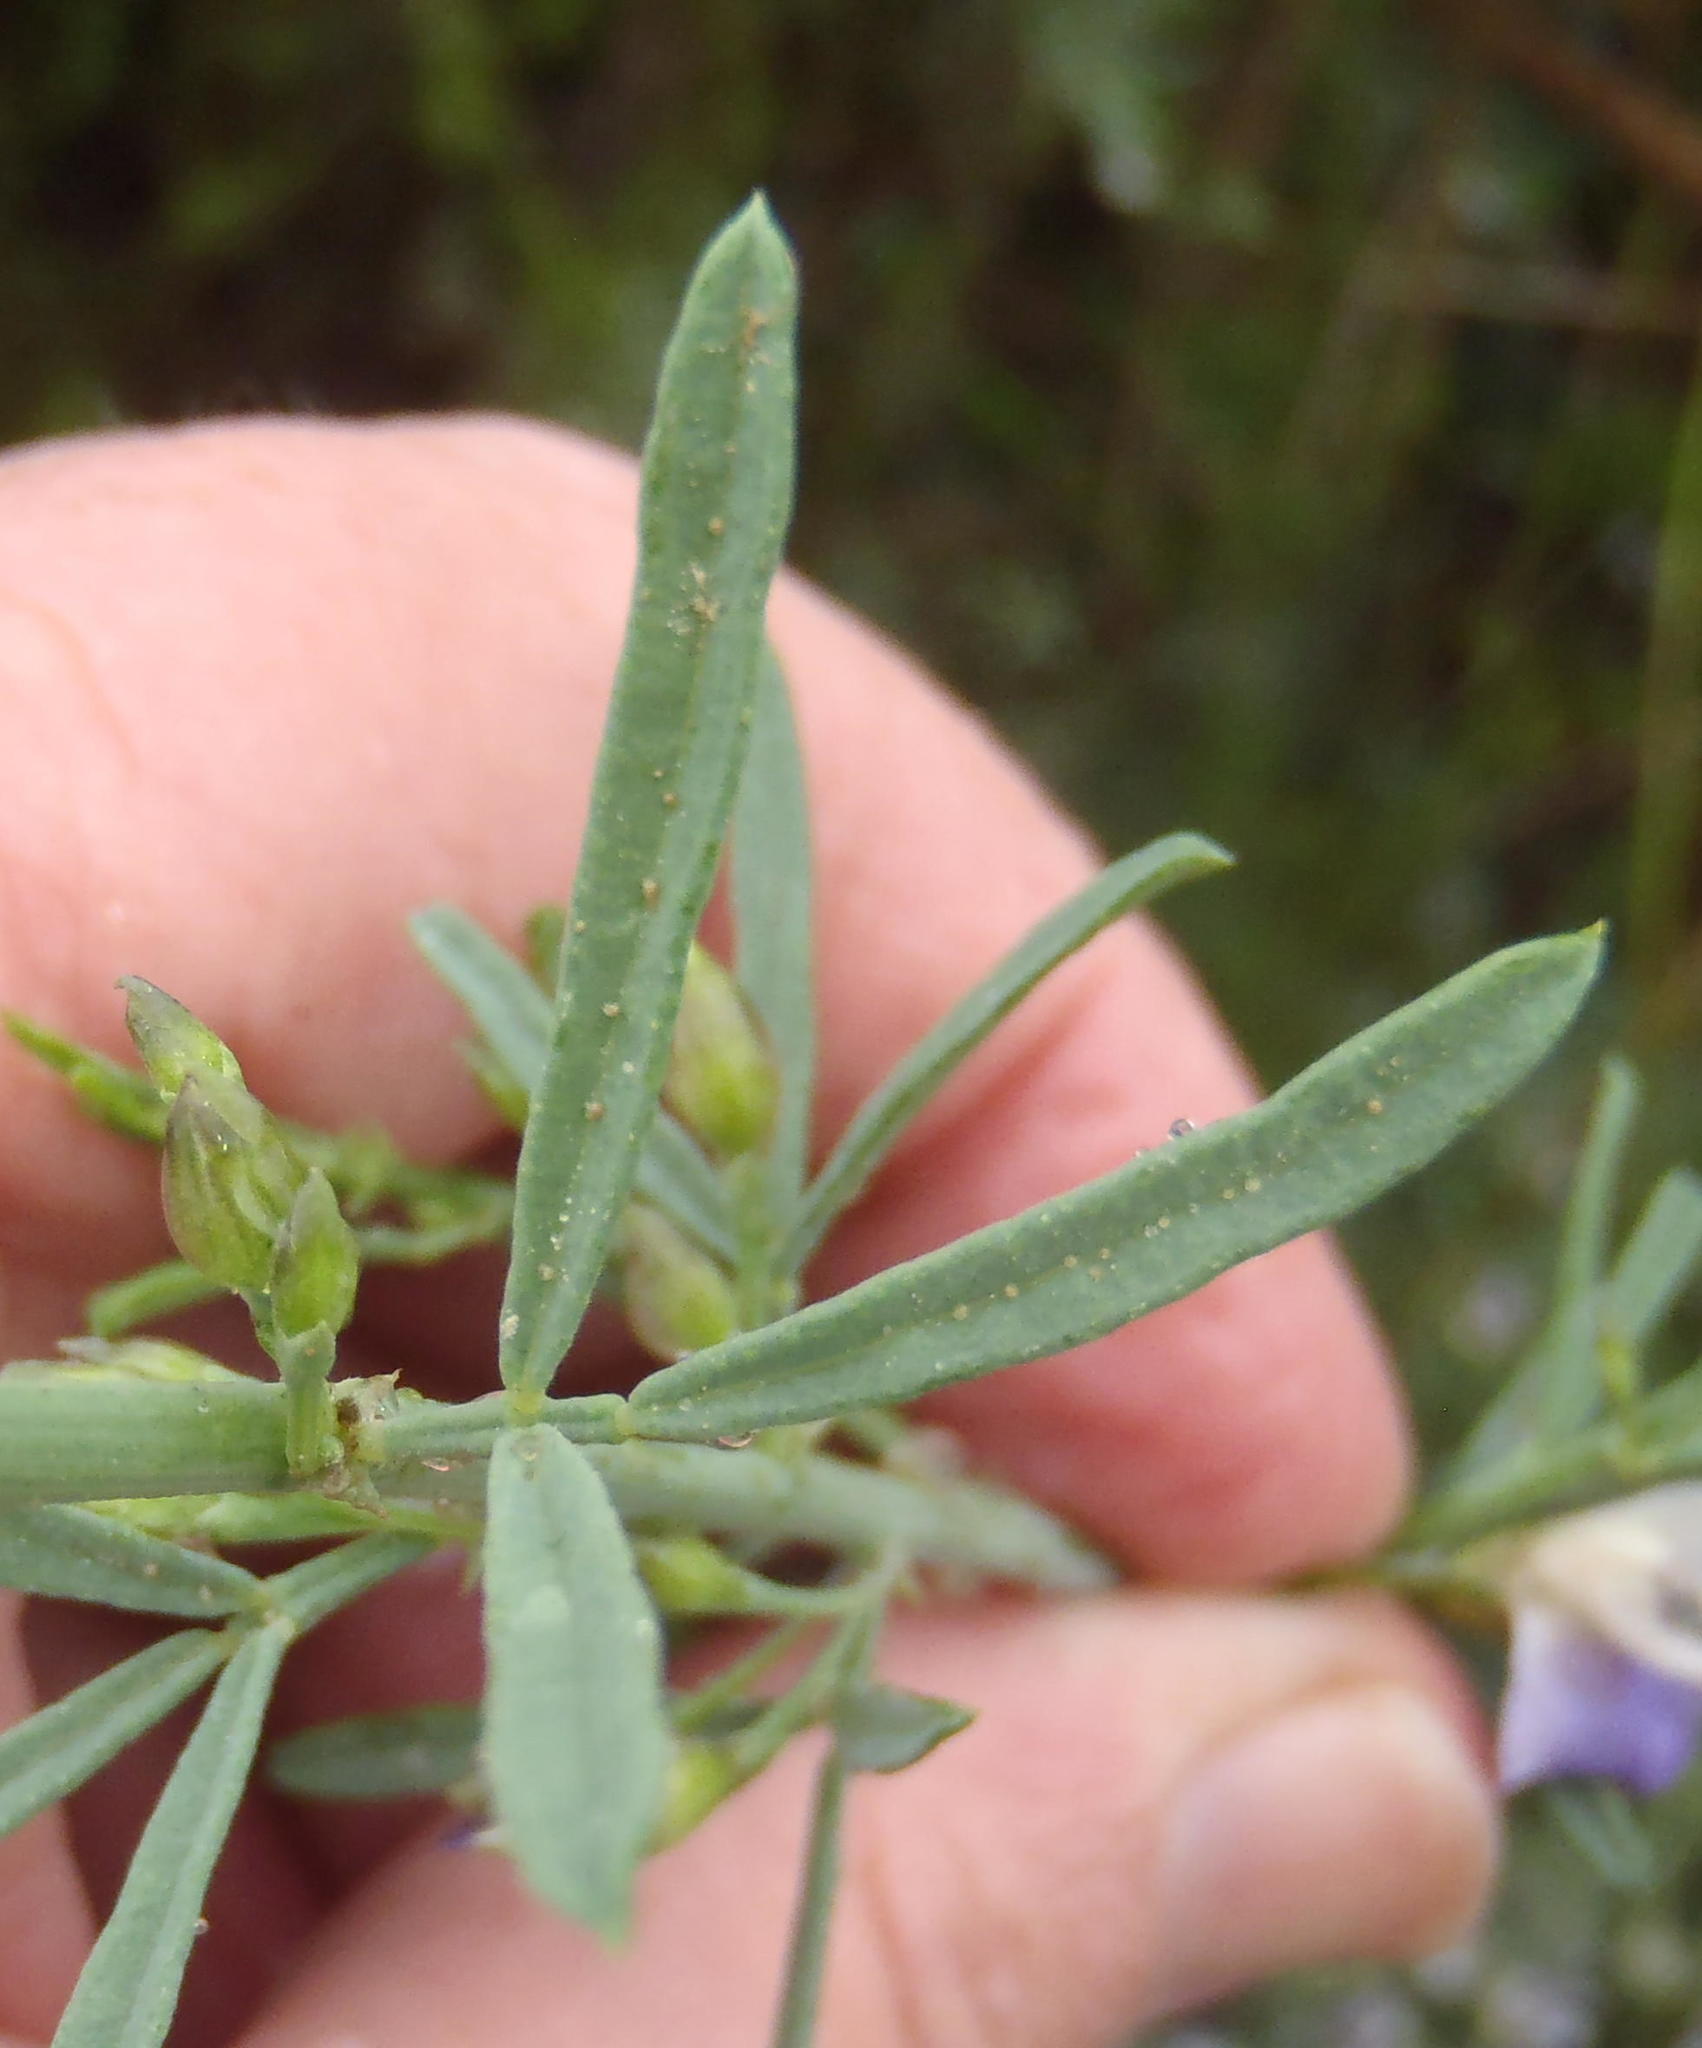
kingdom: Plantae
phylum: Tracheophyta
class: Magnoliopsida
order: Fabales
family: Fabaceae
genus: Psoralea
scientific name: Psoralea axillaris
